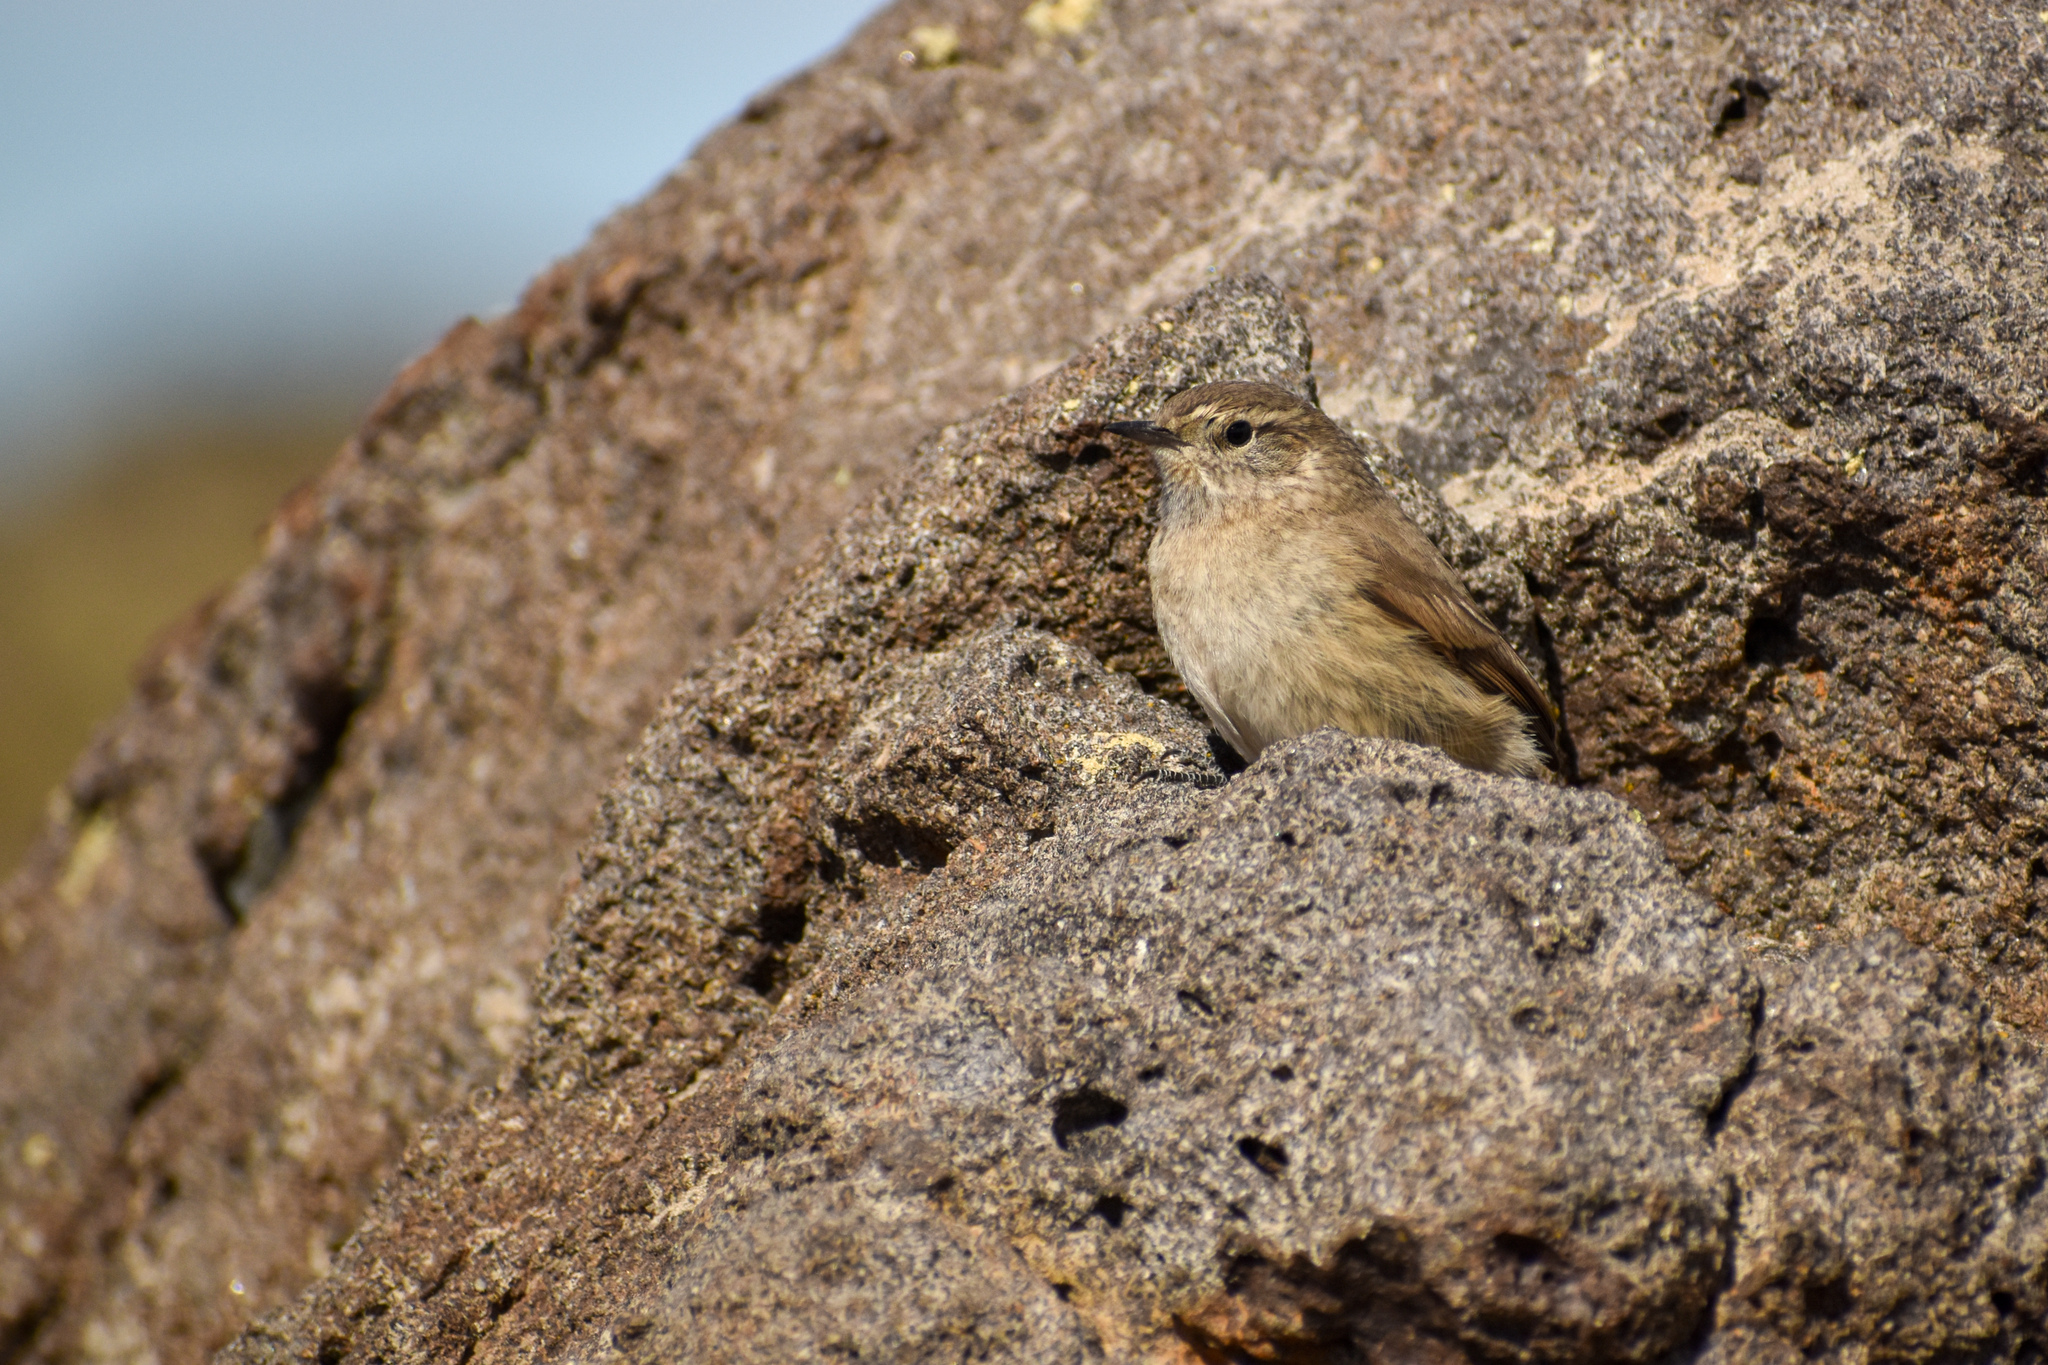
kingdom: Animalia
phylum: Chordata
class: Aves
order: Passeriformes
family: Furnariidae
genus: Asthenes
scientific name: Asthenes modesta
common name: Cordilleran canastero
